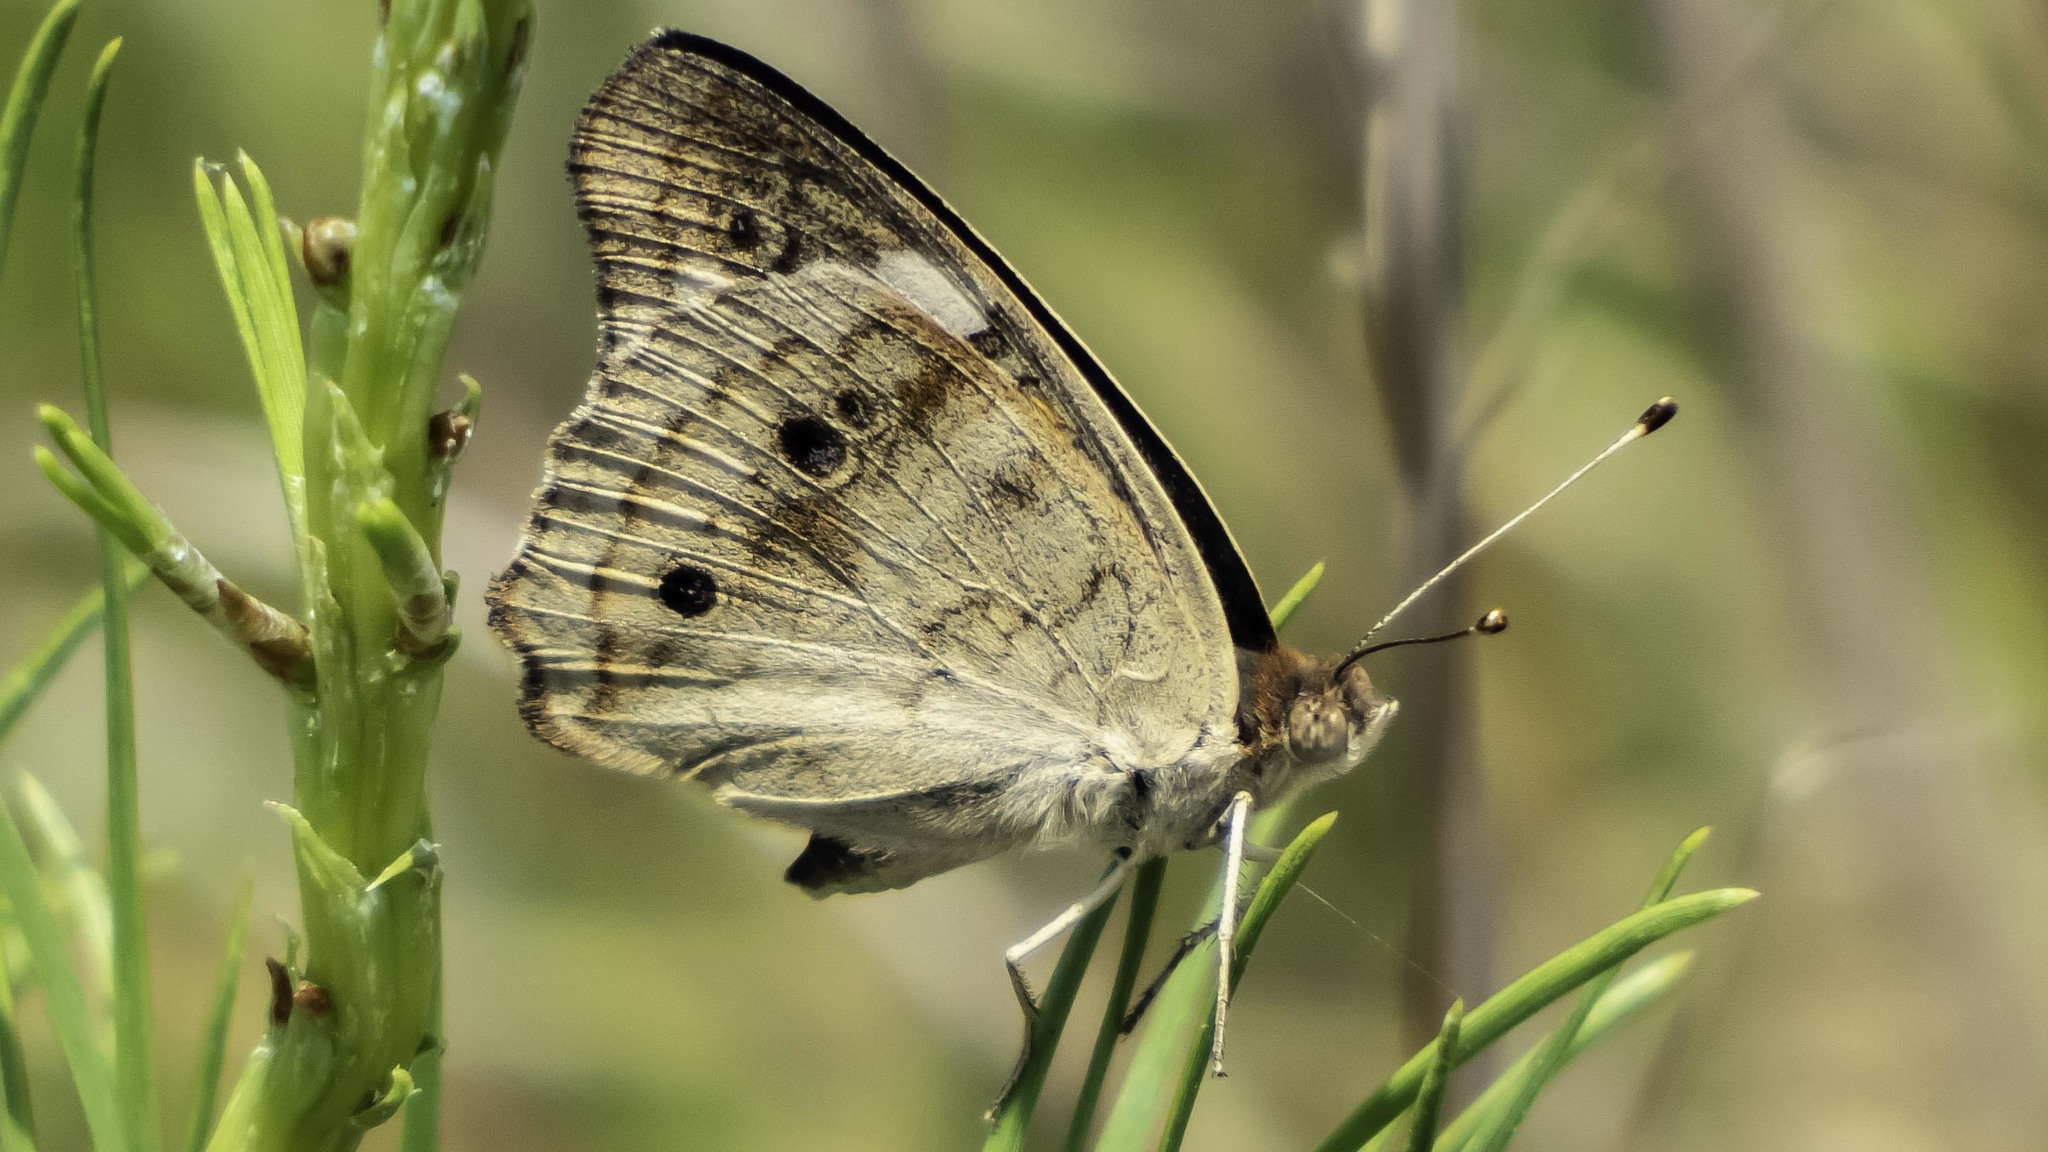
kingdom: Animalia
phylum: Arthropoda
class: Insecta
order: Lepidoptera
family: Nymphalidae
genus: Junonia
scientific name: Junonia coenia
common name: Common buckeye
